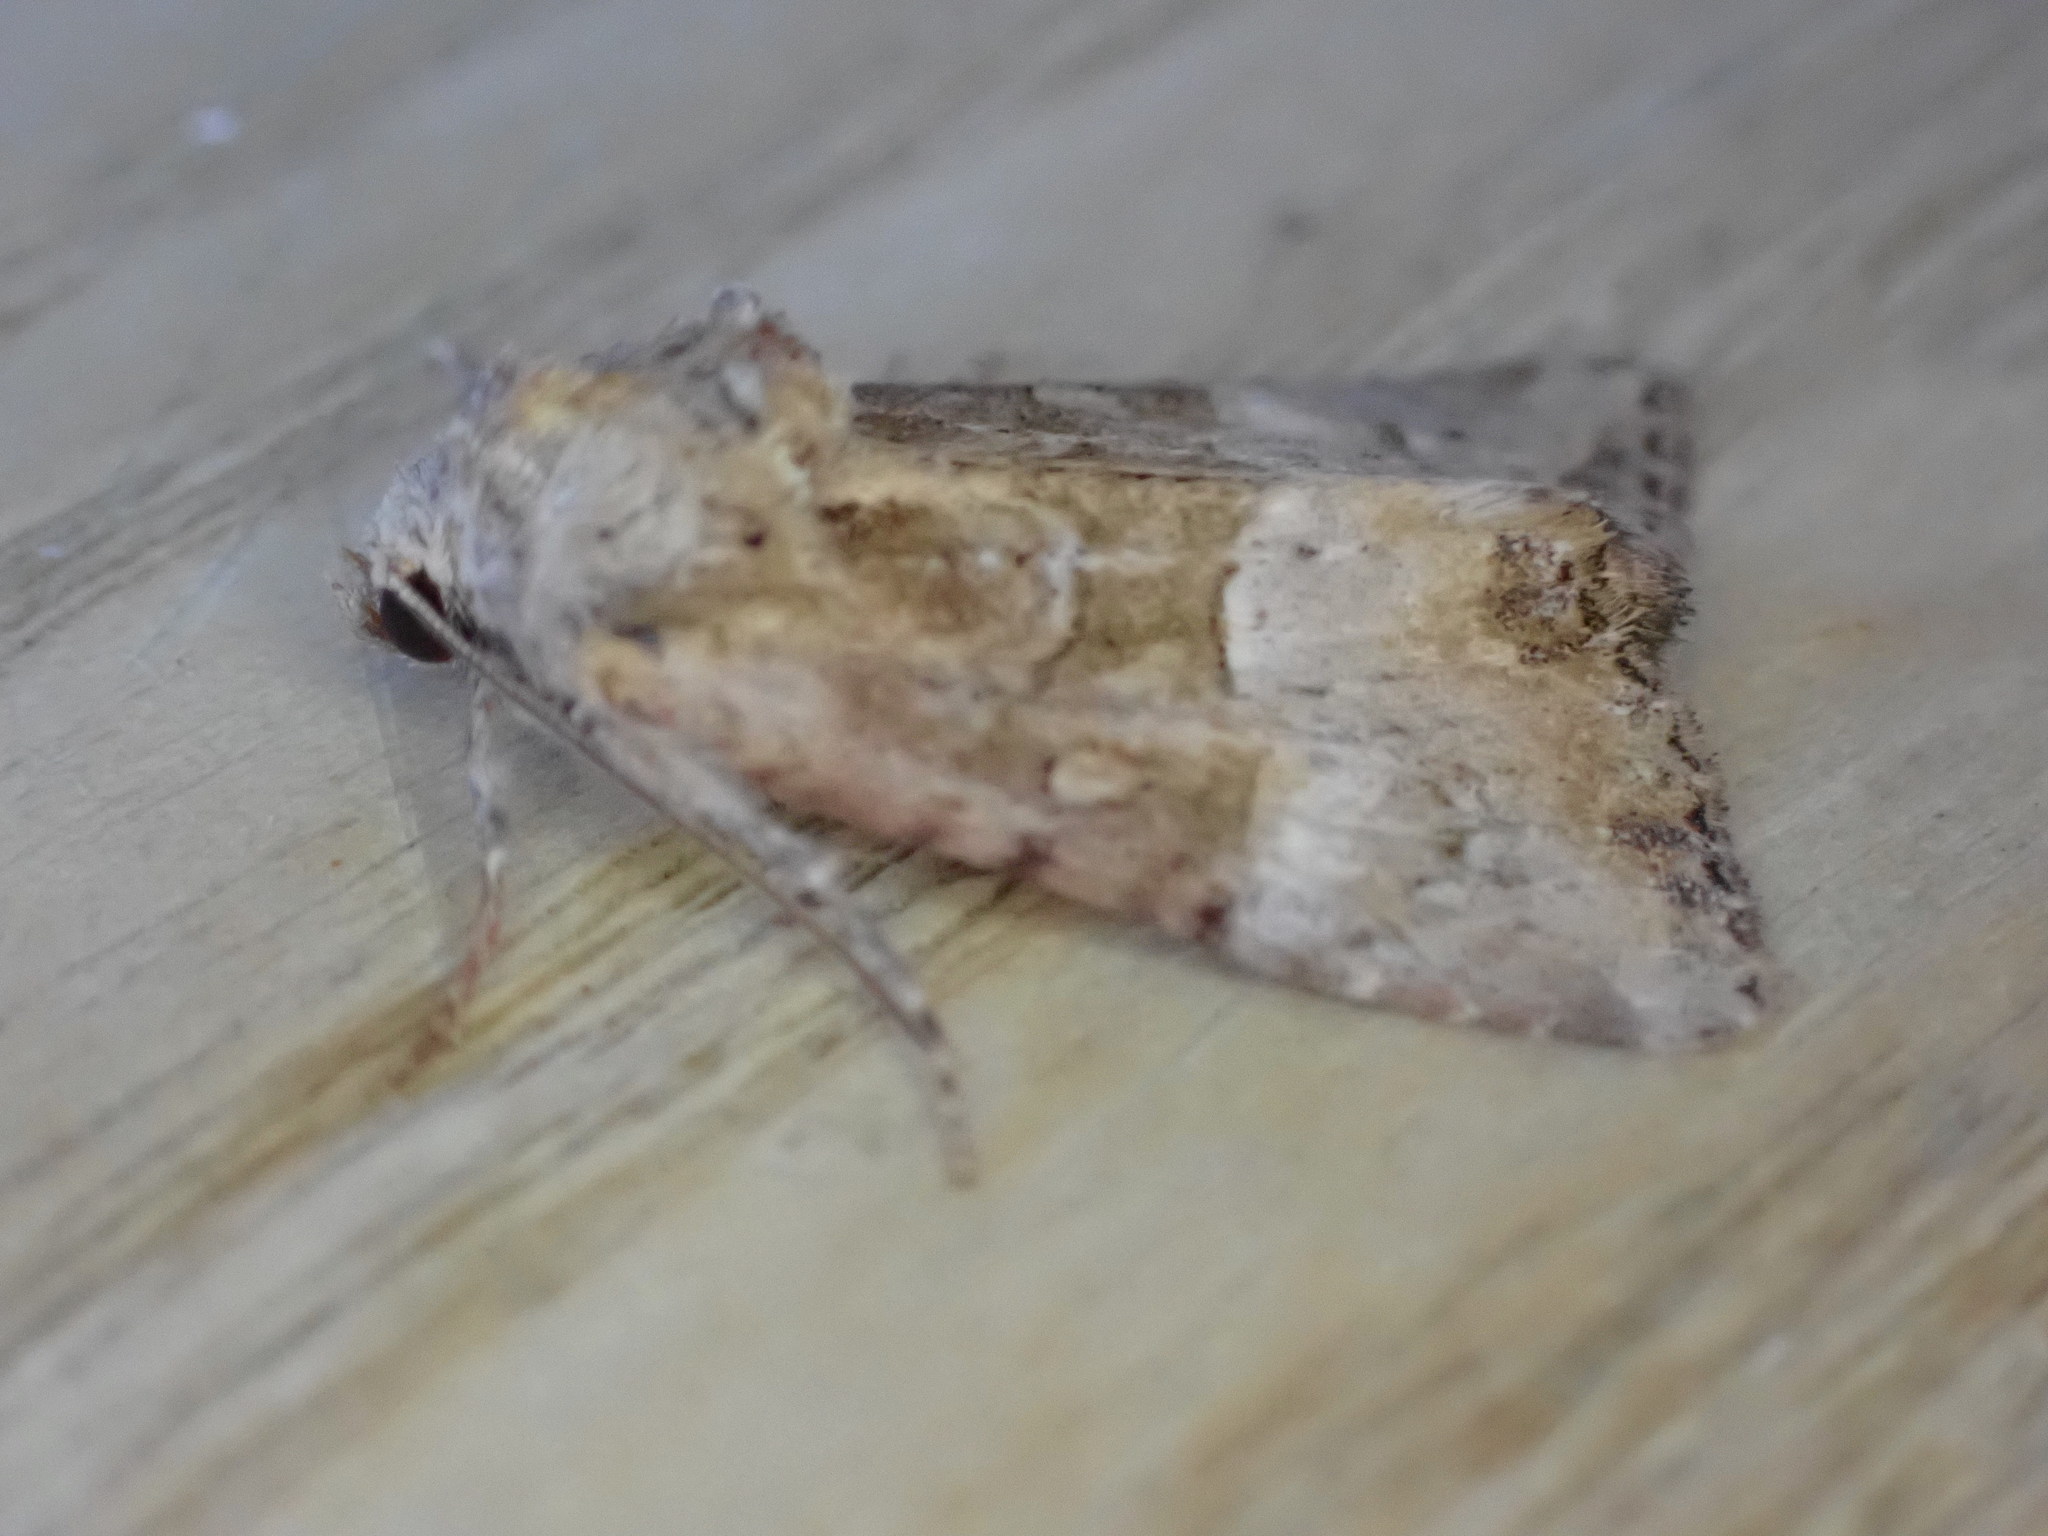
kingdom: Animalia
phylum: Arthropoda
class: Insecta
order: Lepidoptera
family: Noctuidae
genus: Mesoligia
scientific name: Mesoligia furuncula
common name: Cloaked minor
